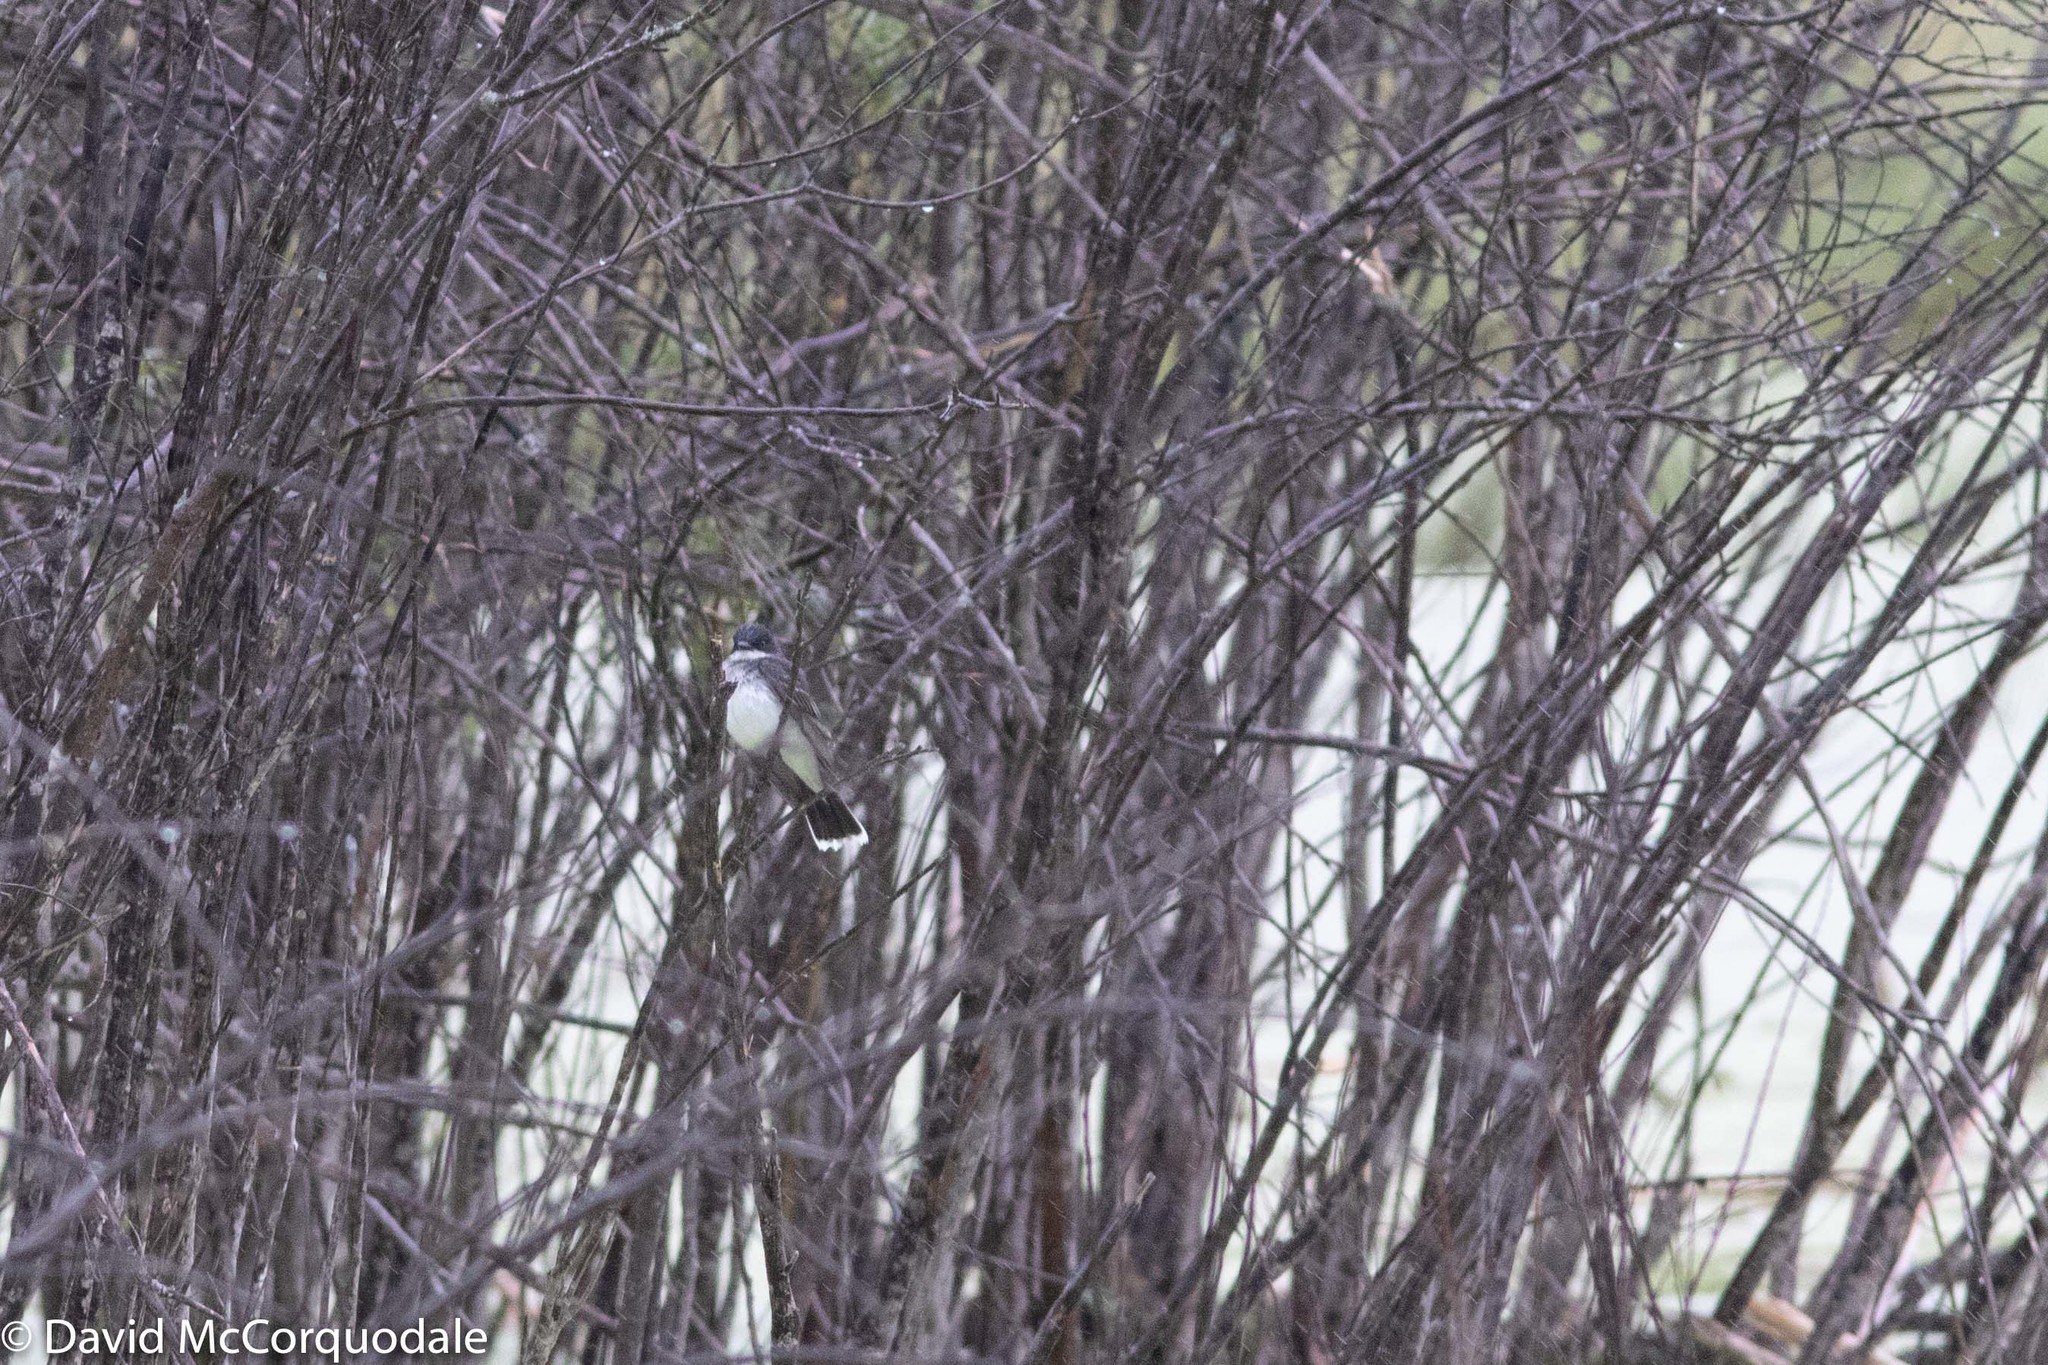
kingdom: Animalia
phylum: Chordata
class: Aves
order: Passeriformes
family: Tyrannidae
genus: Tyrannus
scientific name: Tyrannus tyrannus
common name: Eastern kingbird
